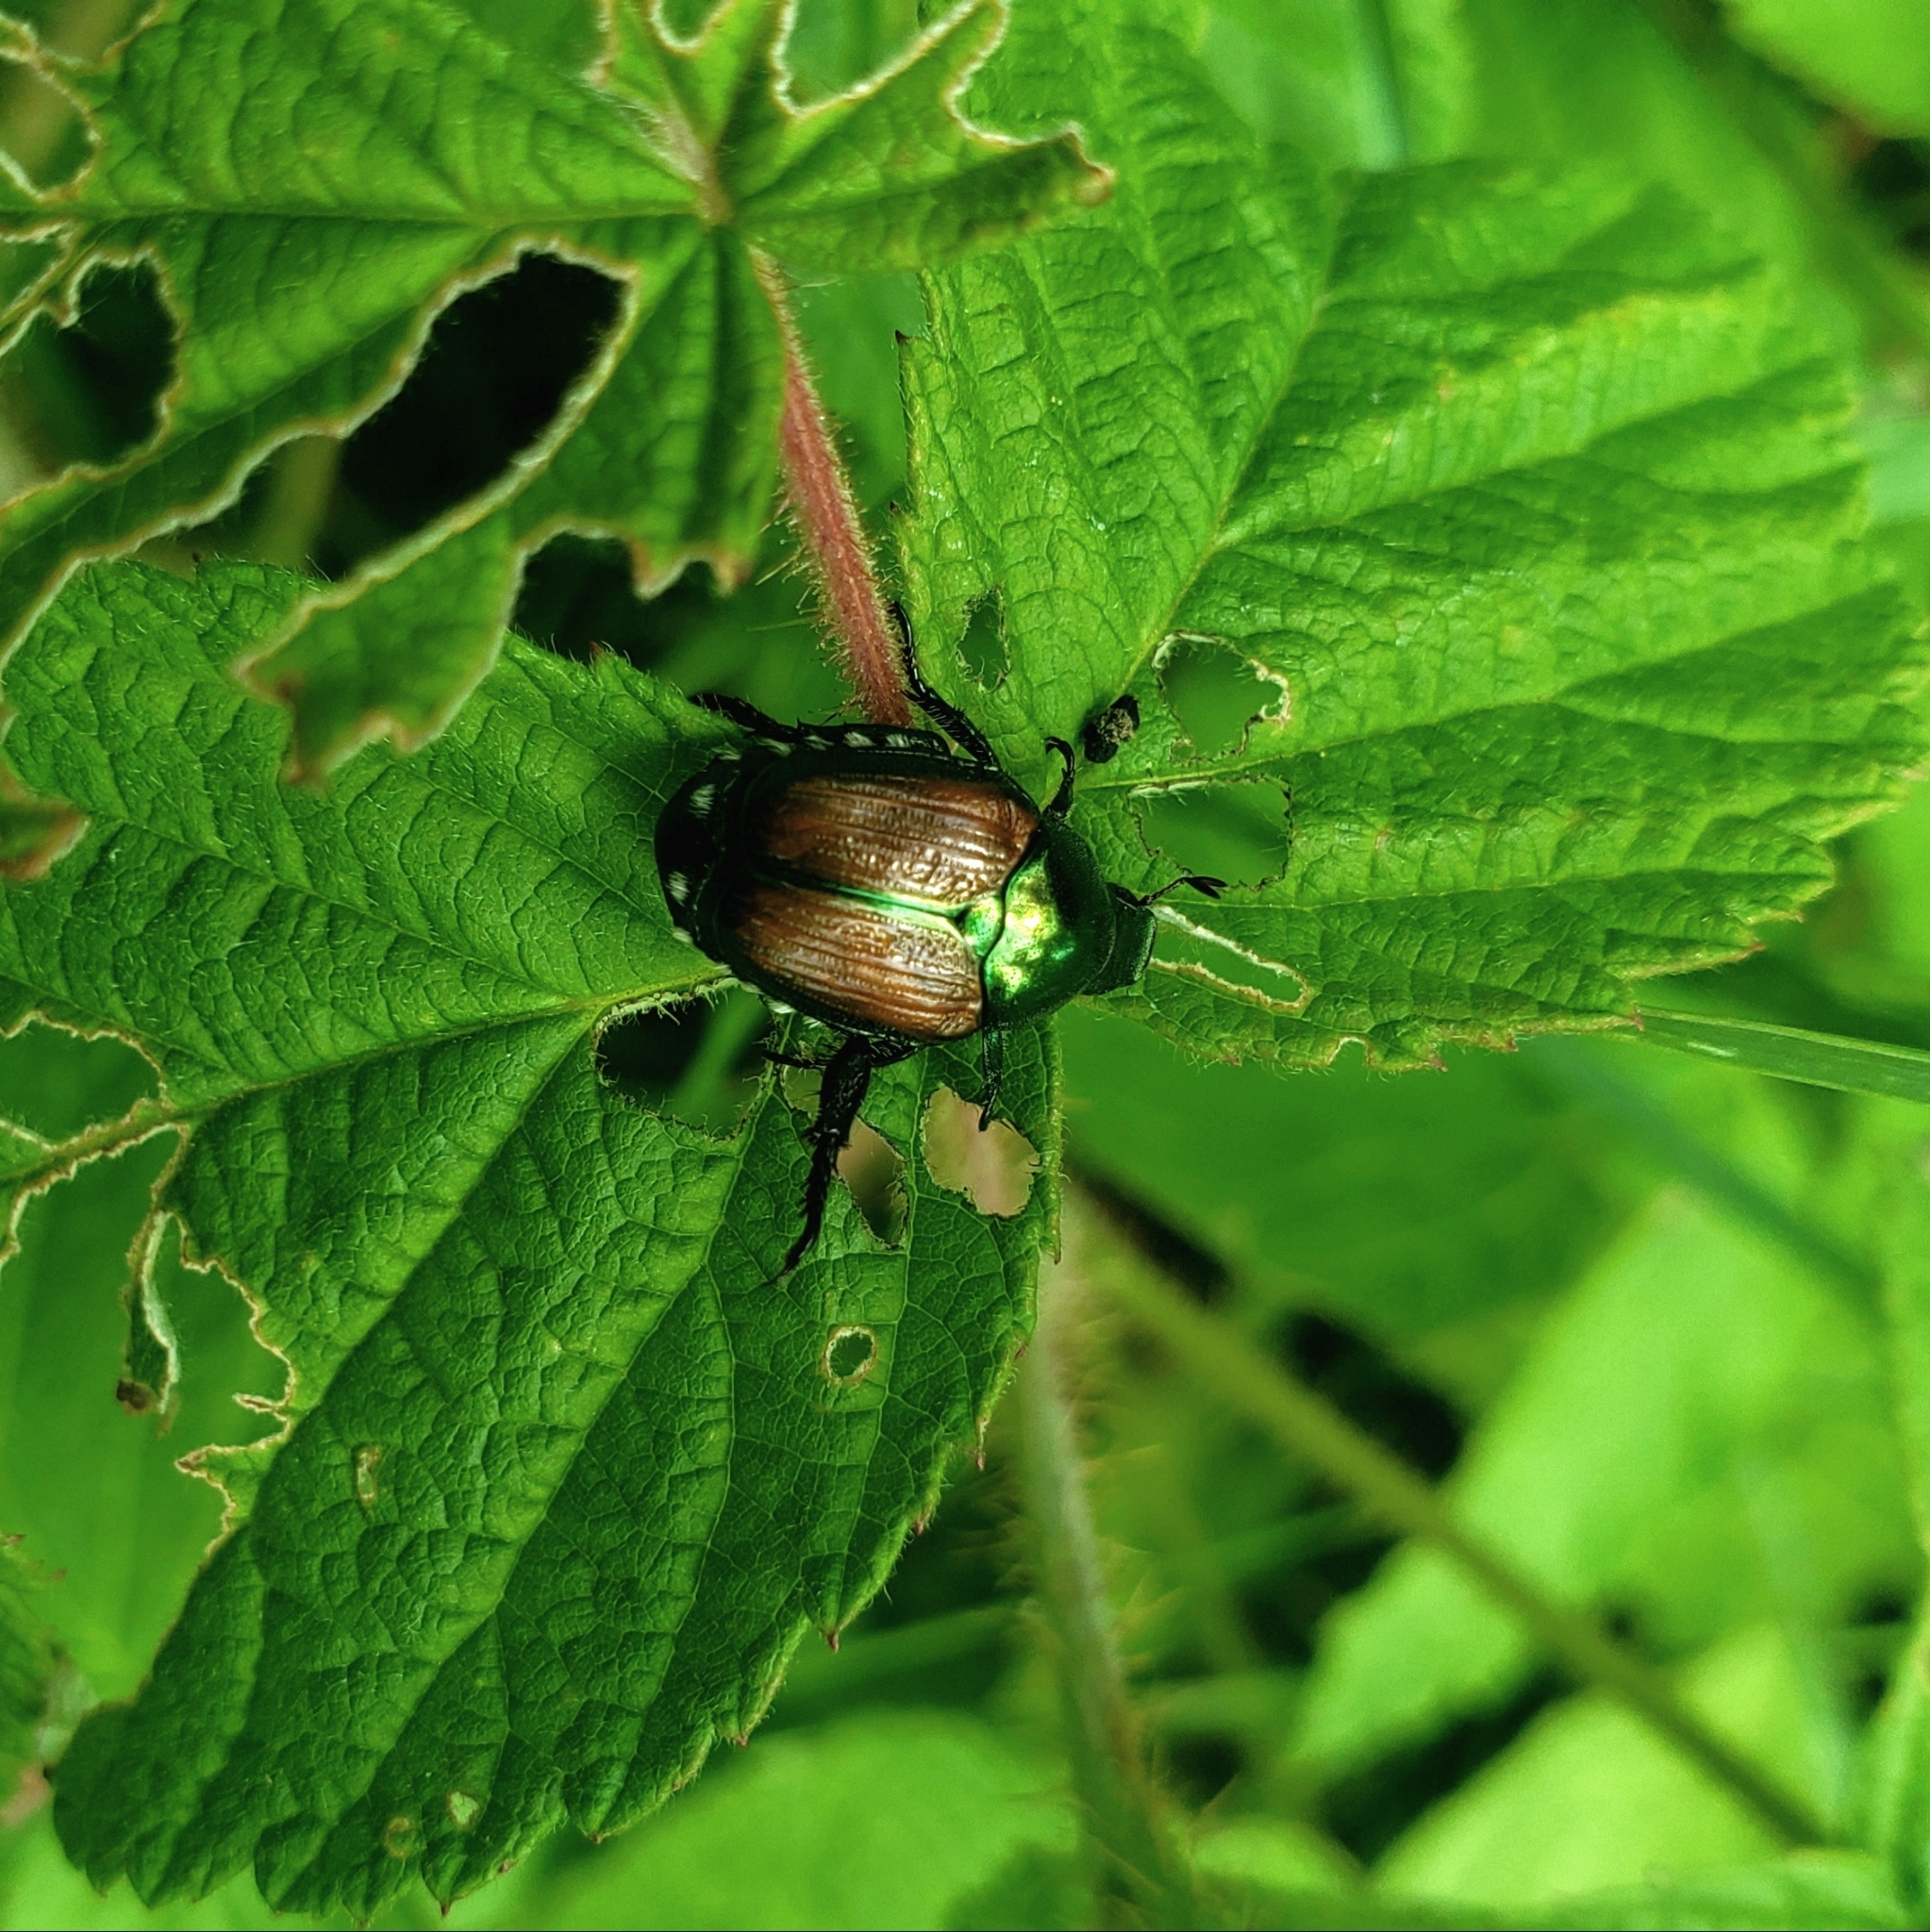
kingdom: Animalia
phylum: Arthropoda
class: Insecta
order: Coleoptera
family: Scarabaeidae
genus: Popillia
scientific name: Popillia japonica
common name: Japanese beetle
